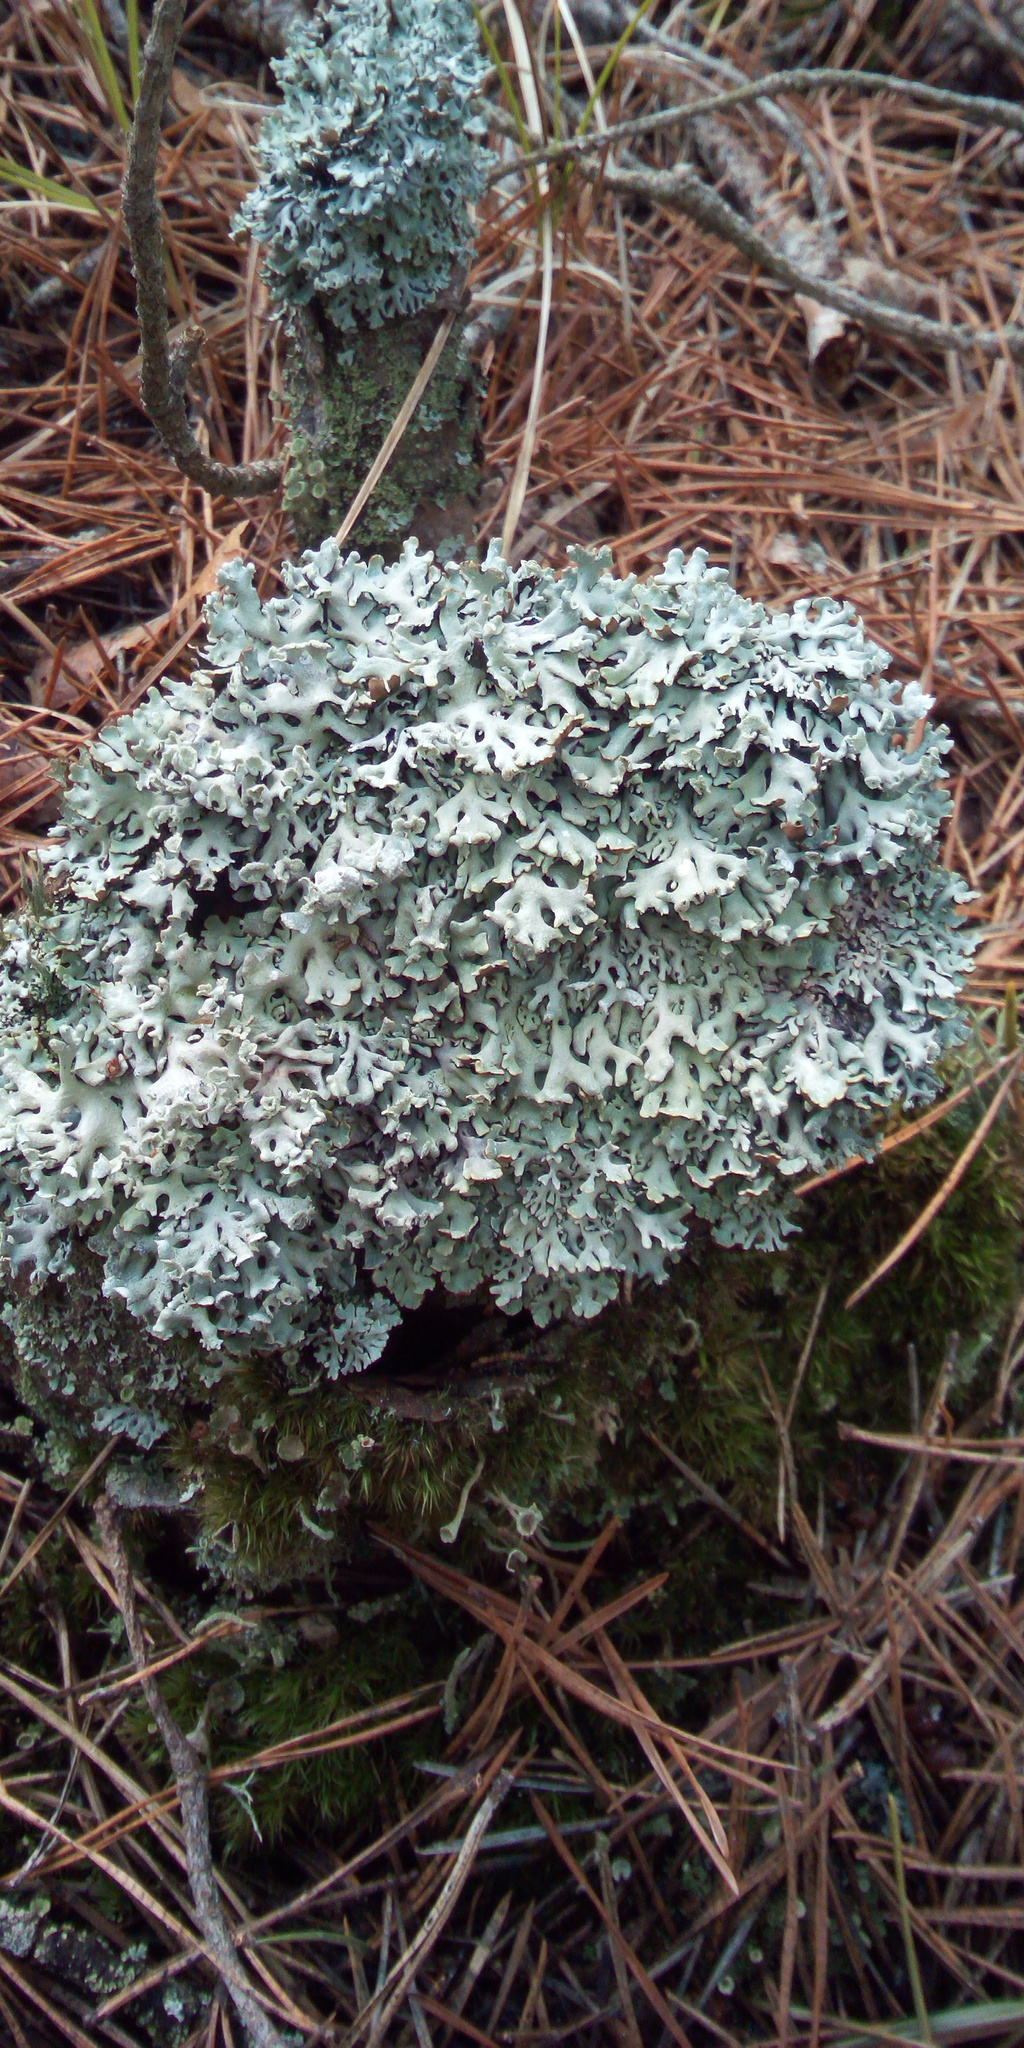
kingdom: Fungi
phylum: Ascomycota
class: Lecanoromycetes
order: Lecanorales
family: Parmeliaceae
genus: Hypogymnia
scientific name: Hypogymnia physodes
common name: Dark crottle
